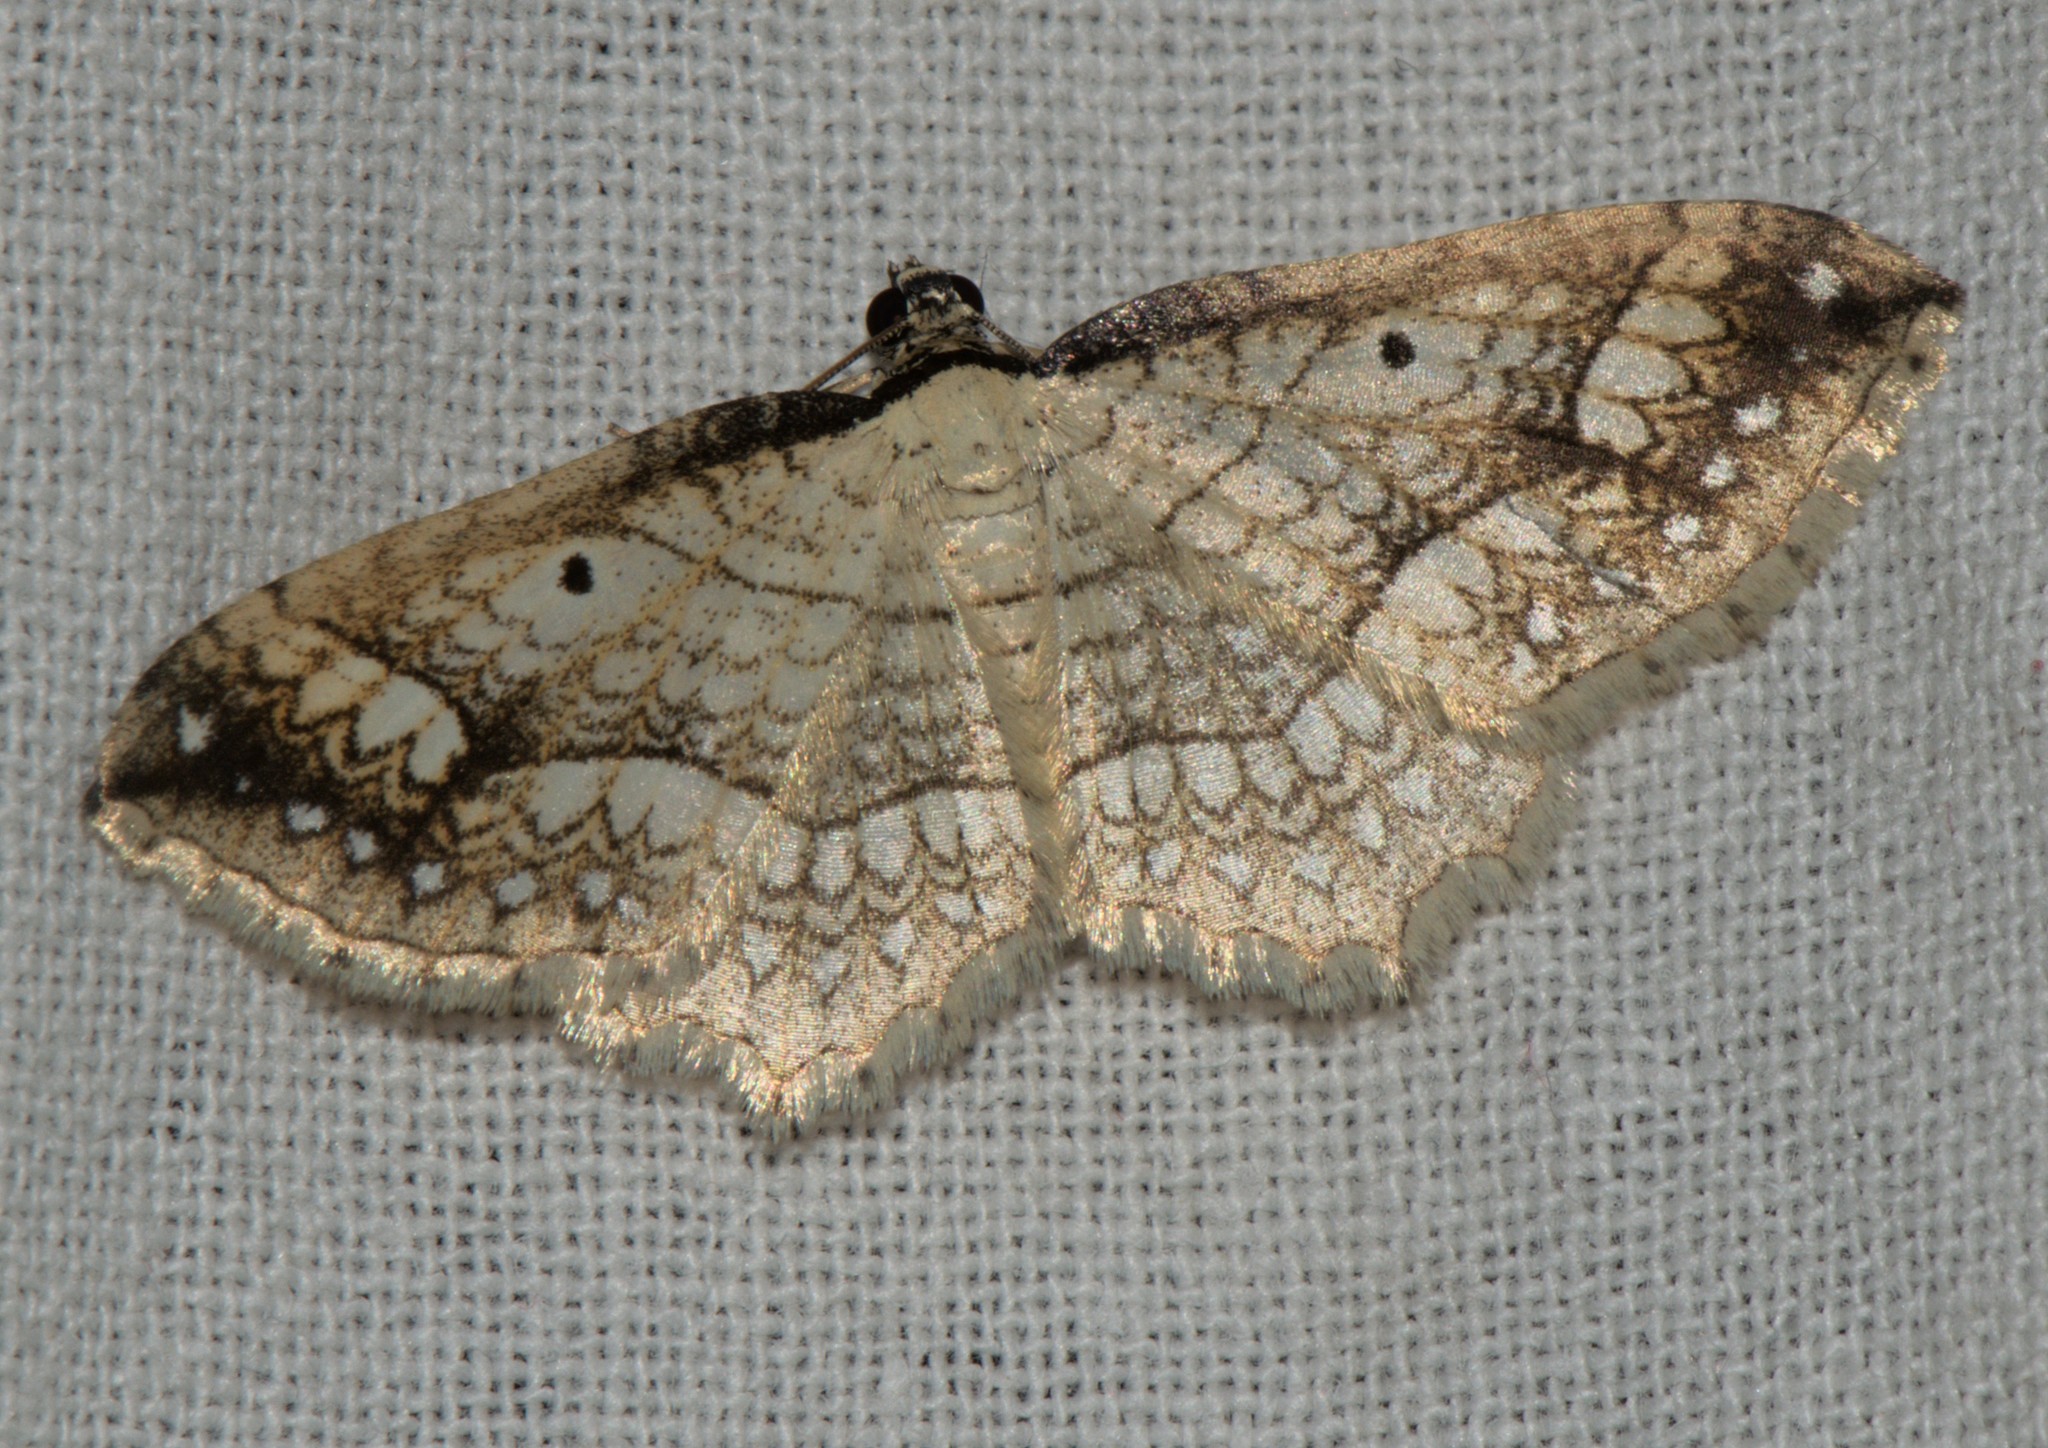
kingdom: Animalia
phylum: Arthropoda
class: Insecta
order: Lepidoptera
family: Geometridae
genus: Laciniodes
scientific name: Laciniodes plurilinearia
